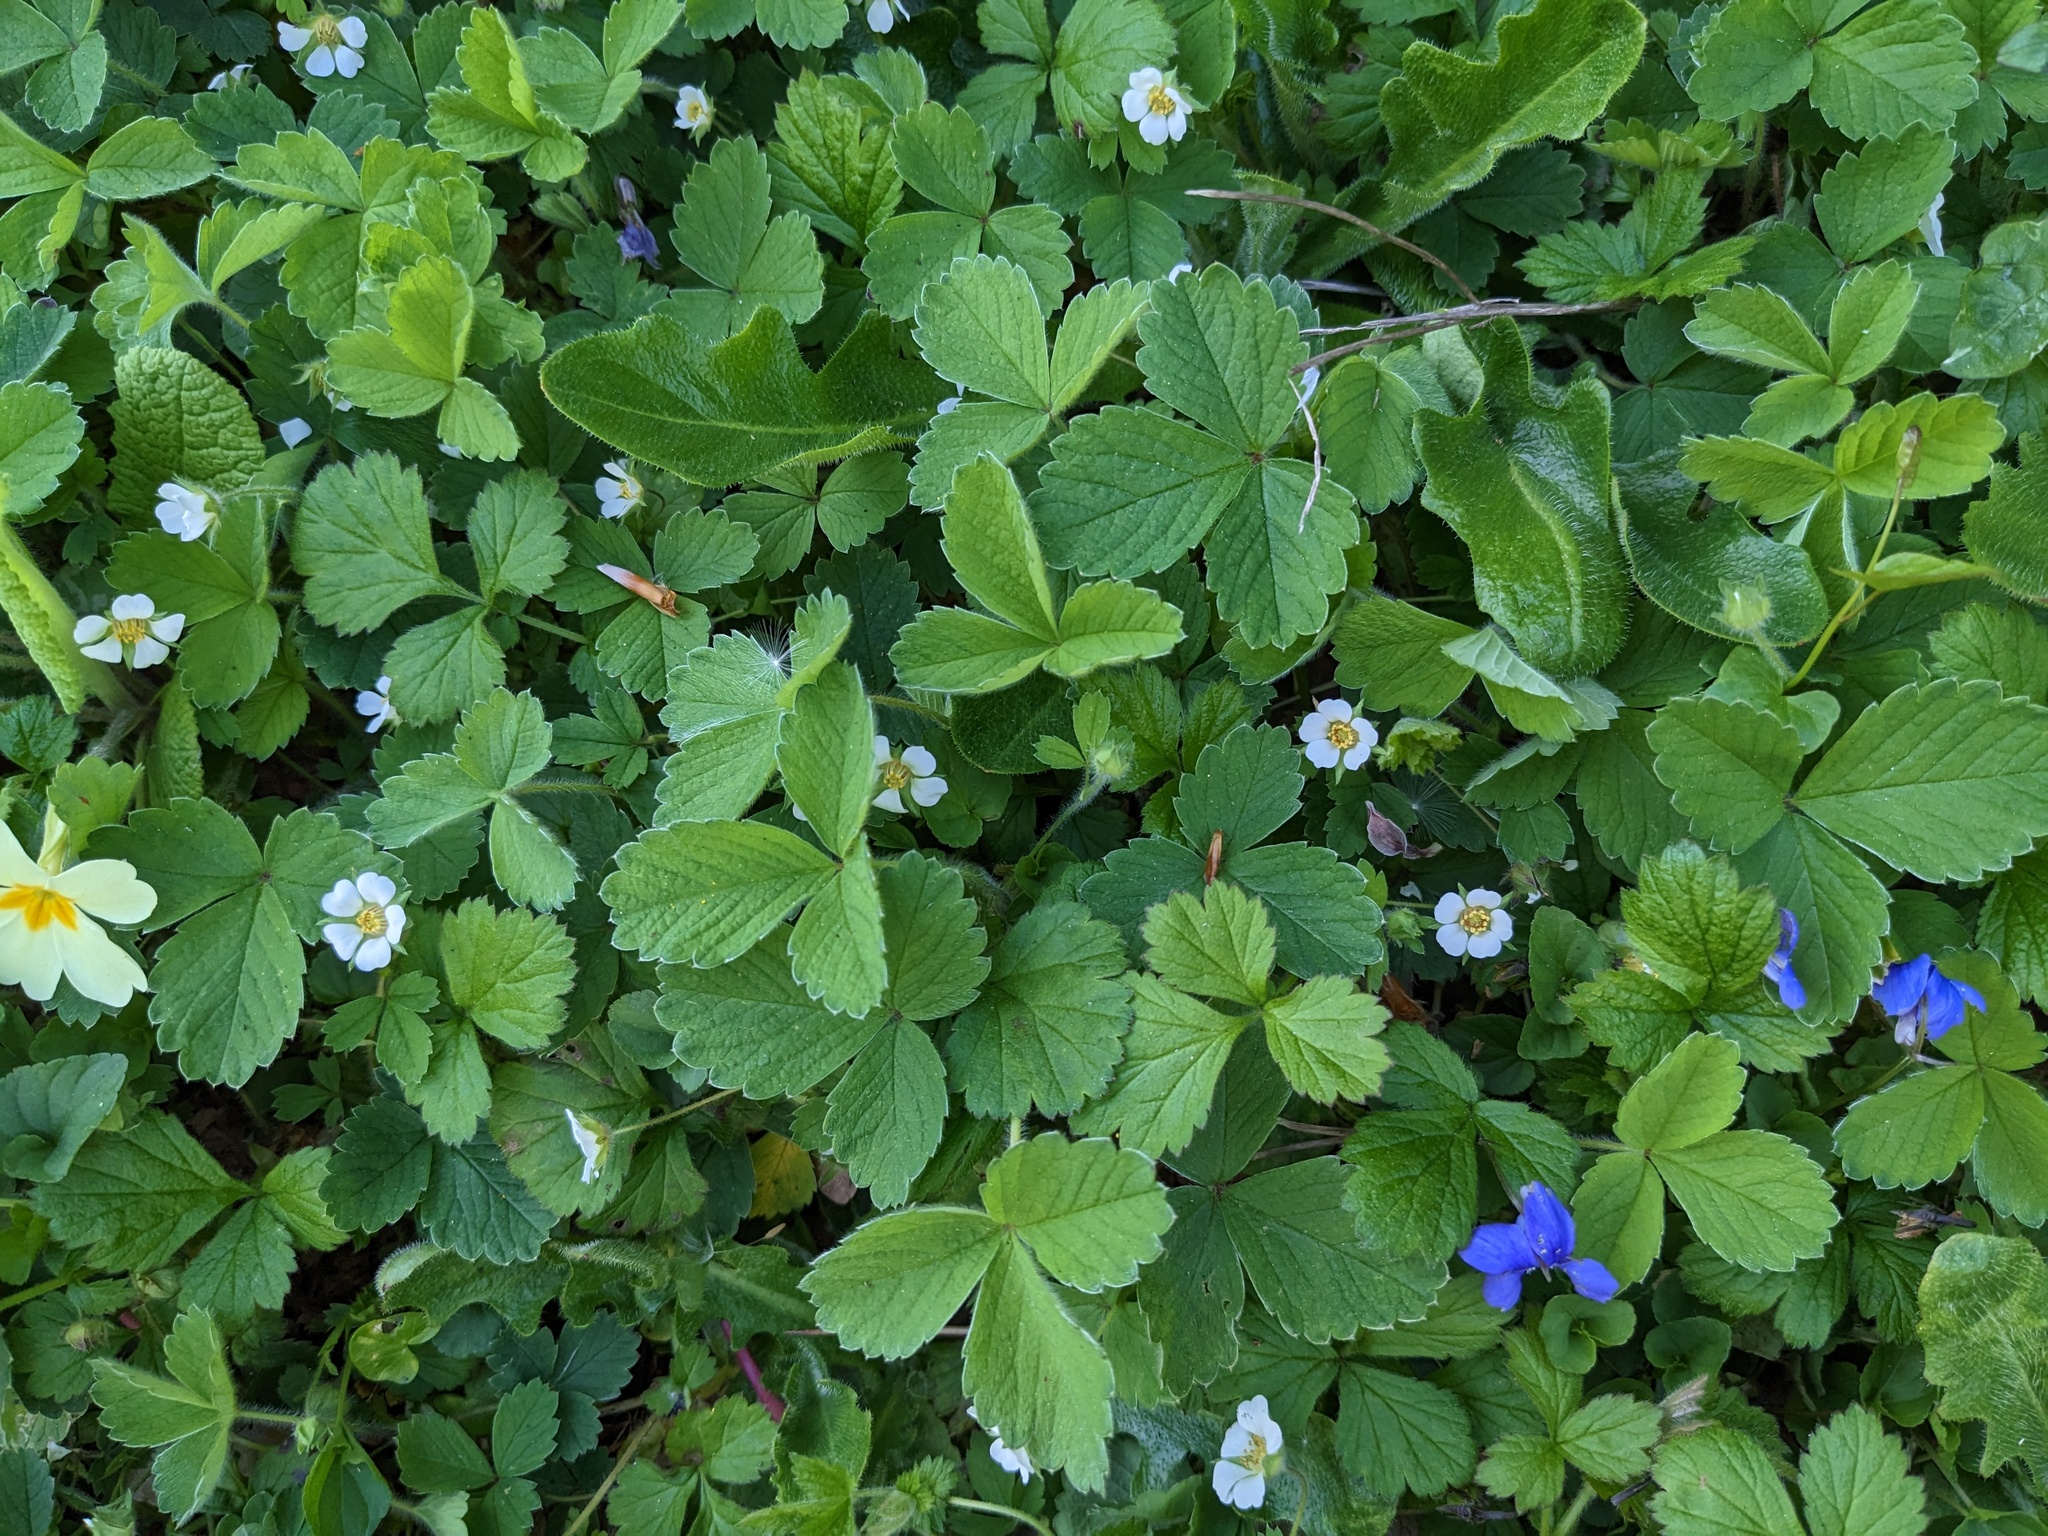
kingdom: Plantae
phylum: Tracheophyta
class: Magnoliopsida
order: Rosales
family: Rosaceae
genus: Potentilla
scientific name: Potentilla sterilis
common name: Barren strawberry
